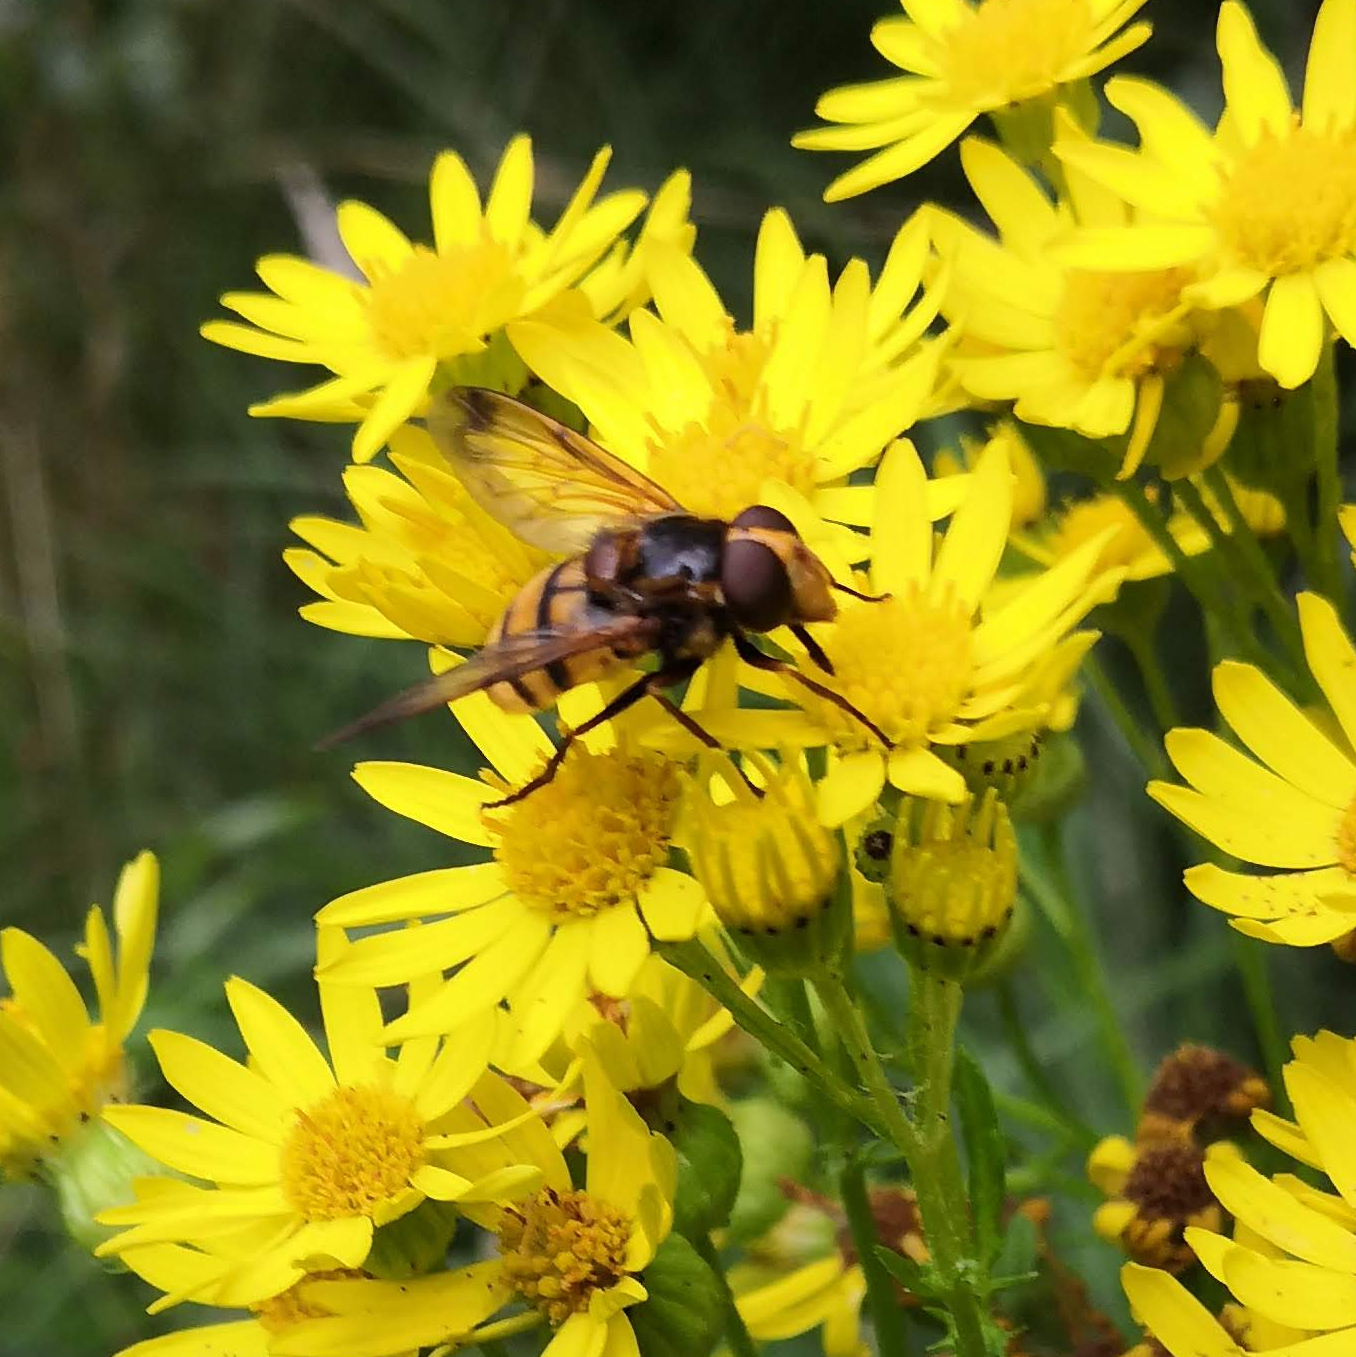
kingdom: Animalia
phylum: Arthropoda
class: Insecta
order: Diptera
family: Syrphidae
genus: Volucella
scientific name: Volucella inanis
